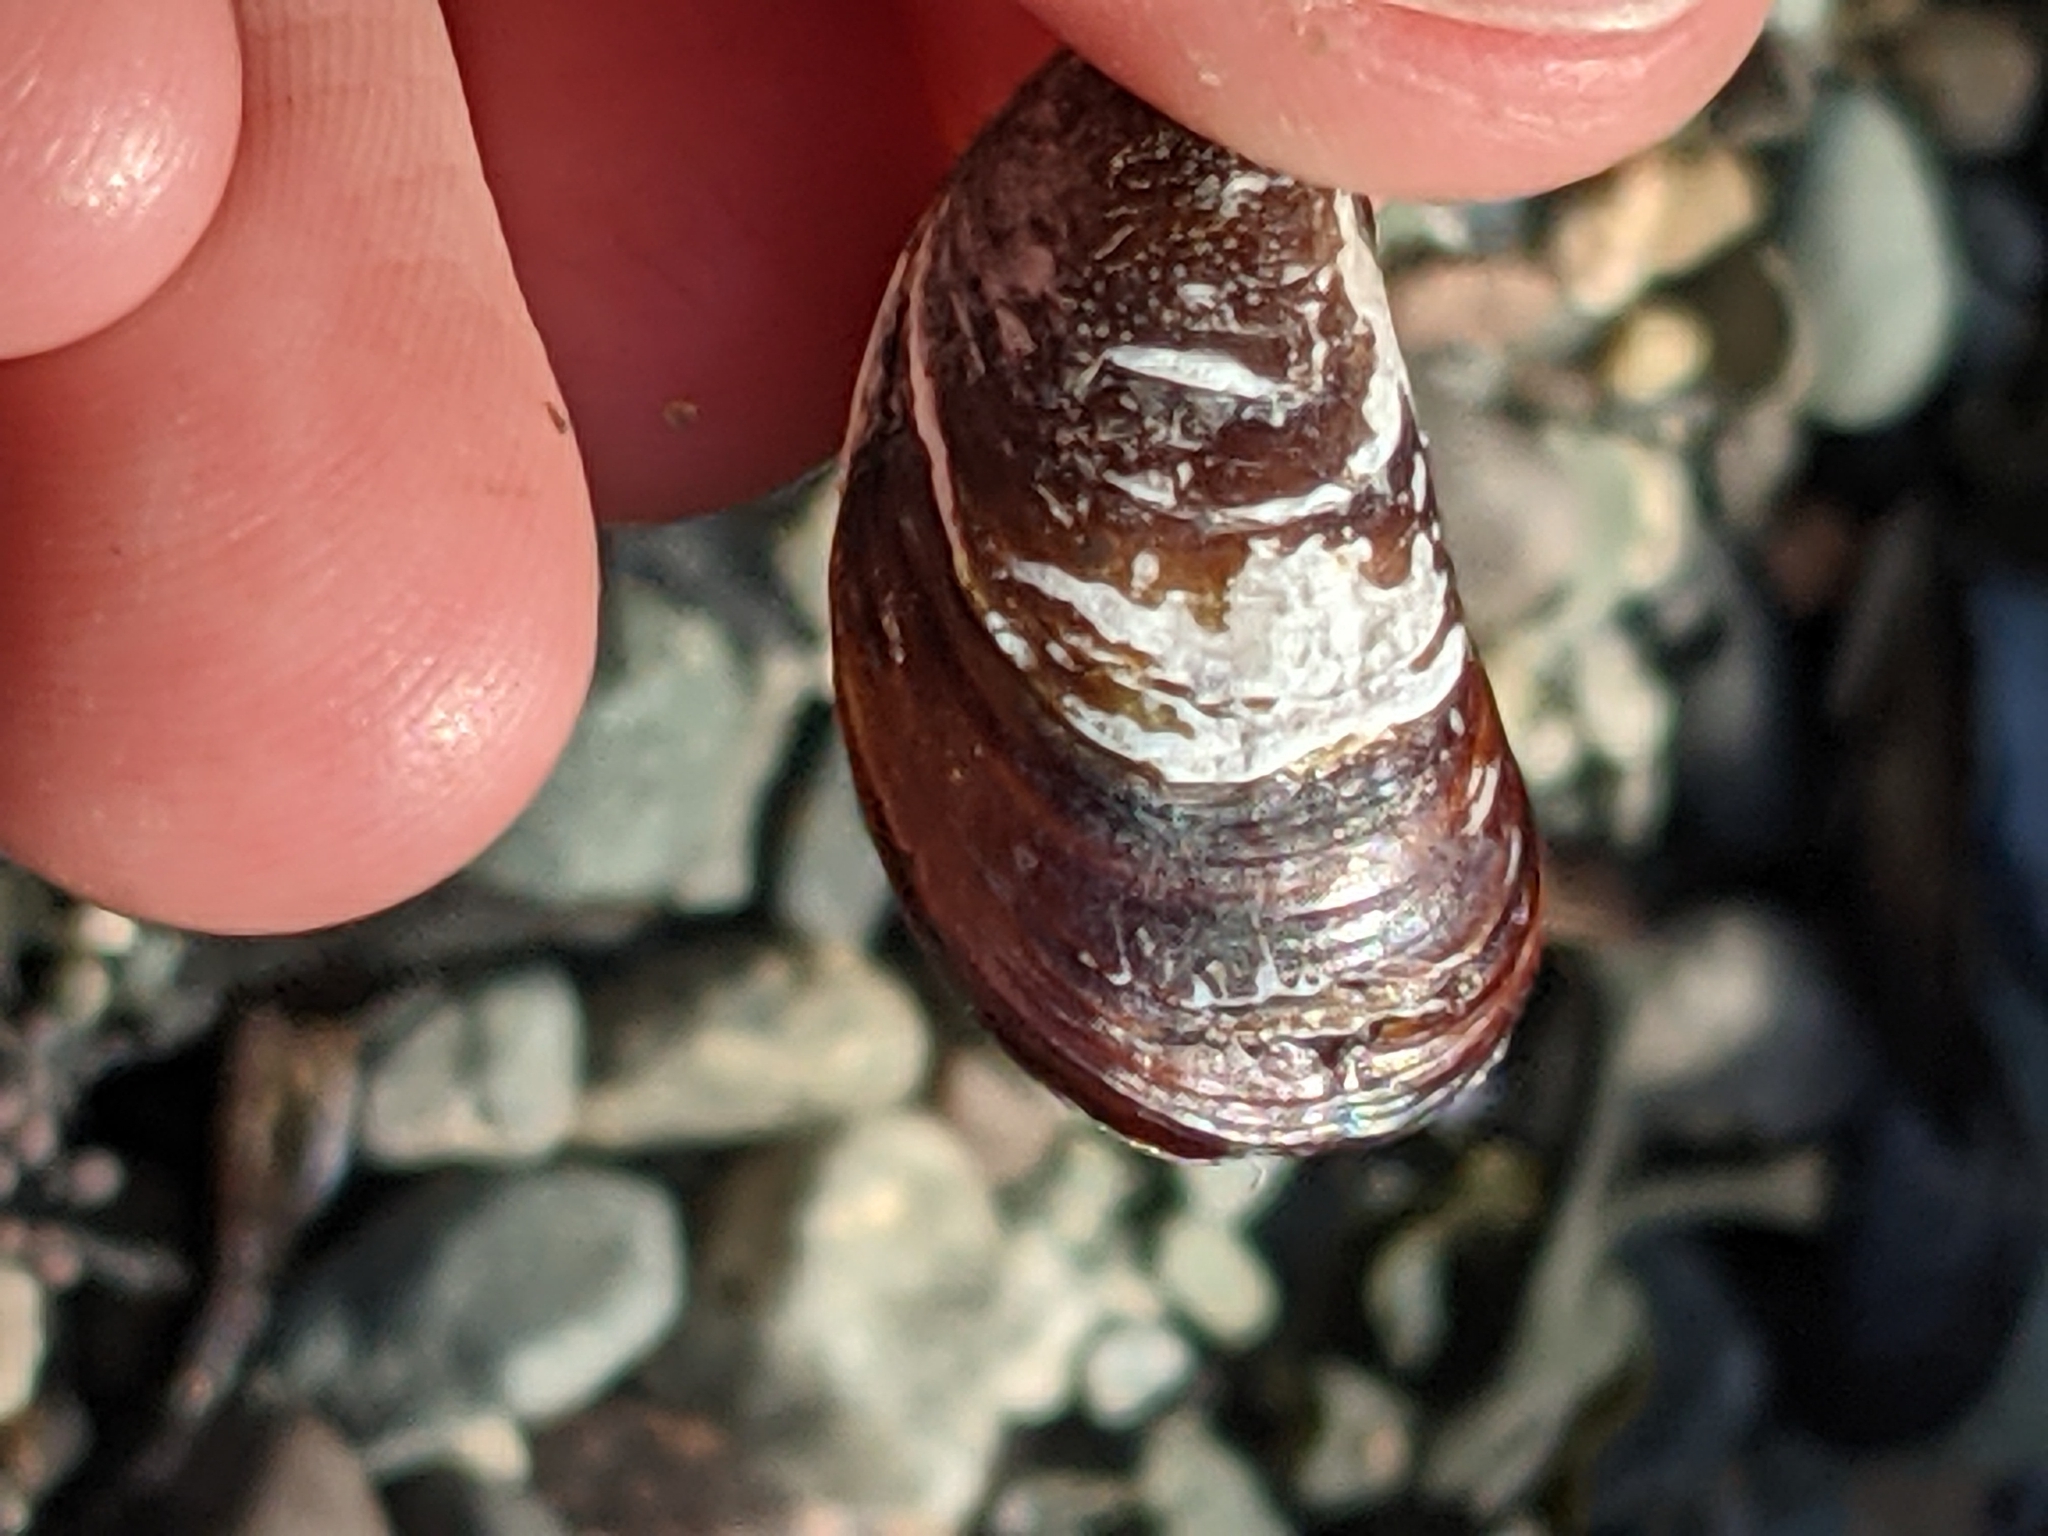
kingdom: Animalia
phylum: Mollusca
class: Bivalvia
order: Mytilida
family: Mytilidae
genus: Mytilus
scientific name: Mytilus
